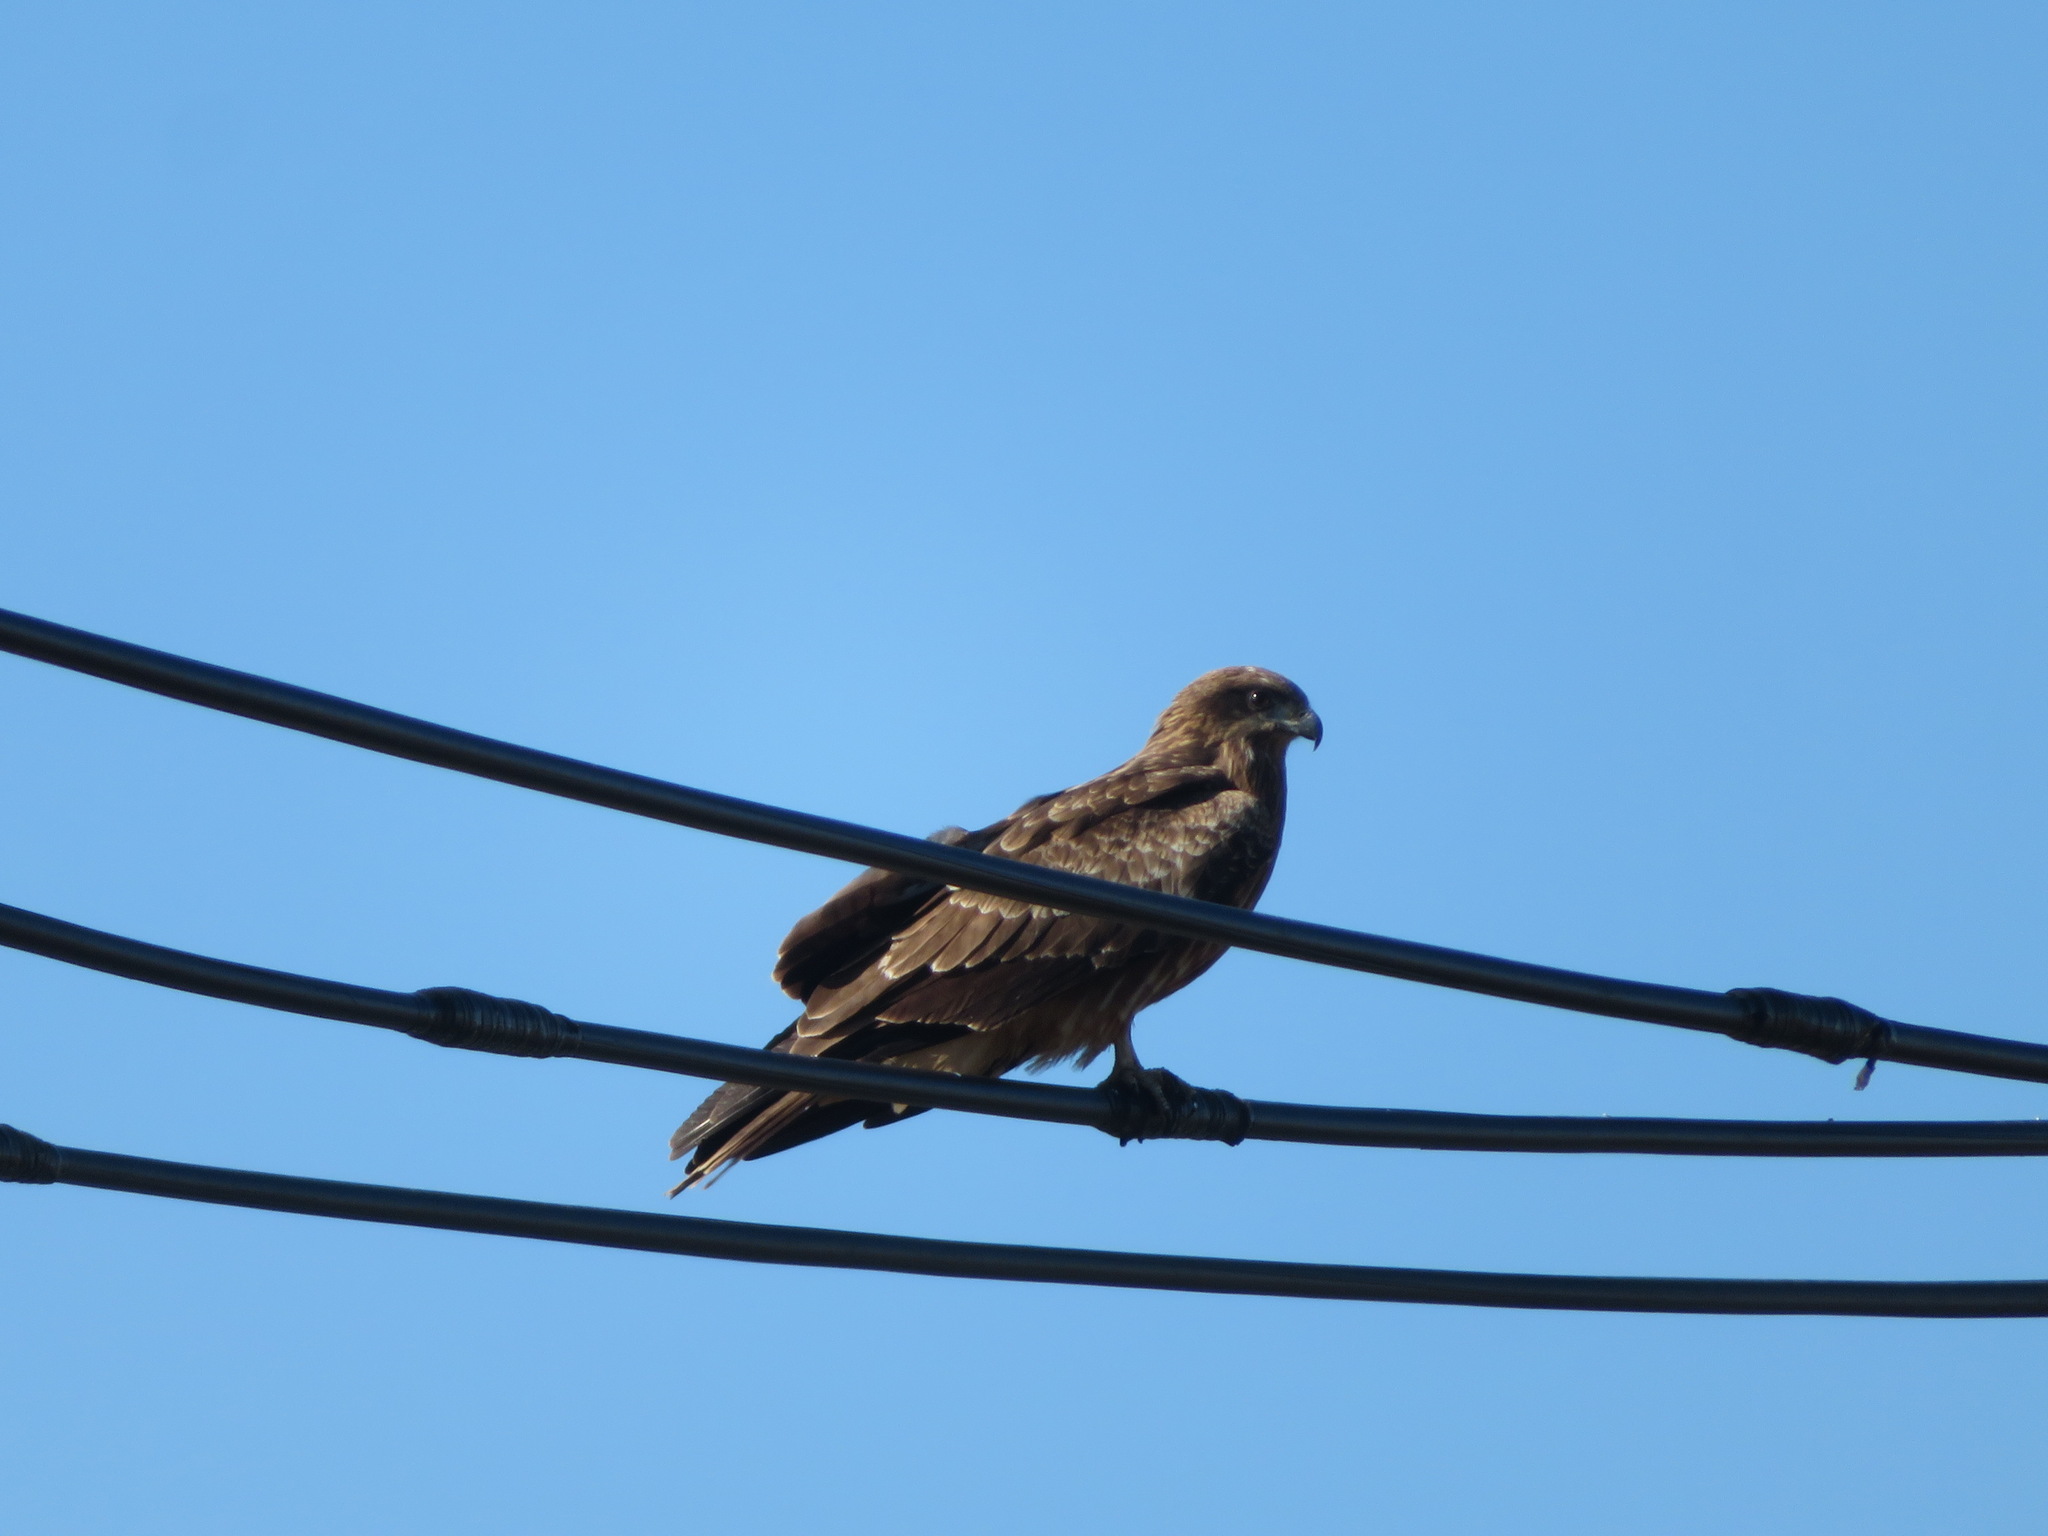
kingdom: Animalia
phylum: Chordata
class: Aves
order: Accipitriformes
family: Accipitridae
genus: Milvus
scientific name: Milvus migrans
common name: Black kite
